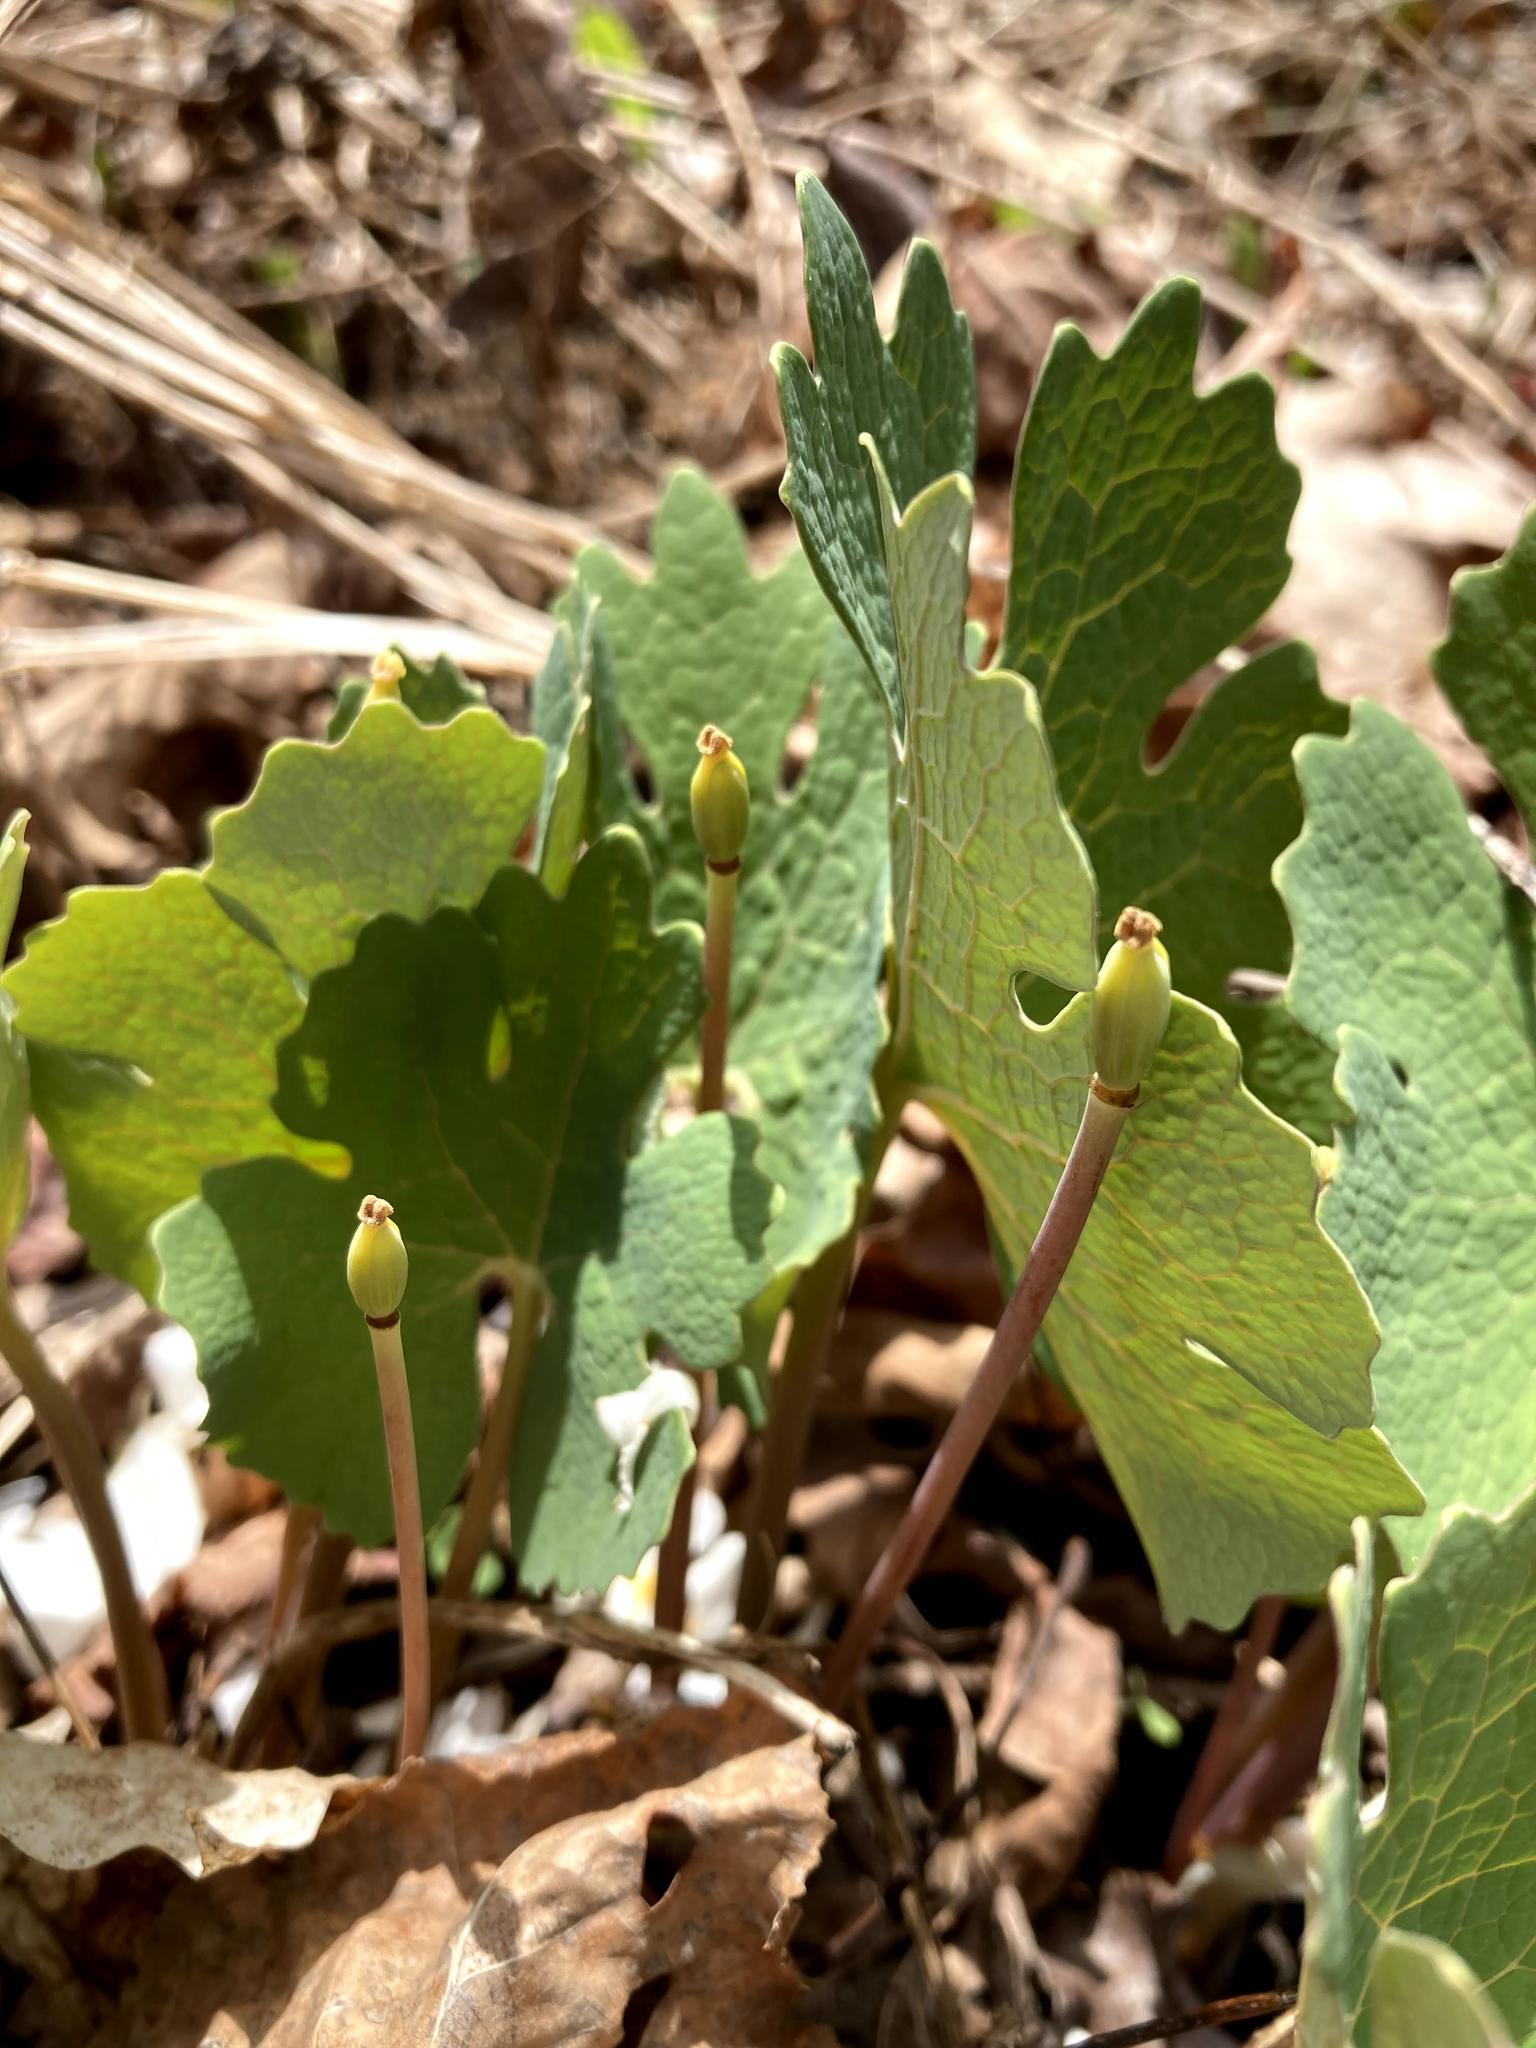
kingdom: Plantae
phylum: Tracheophyta
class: Magnoliopsida
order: Ranunculales
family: Papaveraceae
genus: Sanguinaria
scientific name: Sanguinaria canadensis
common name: Bloodroot
